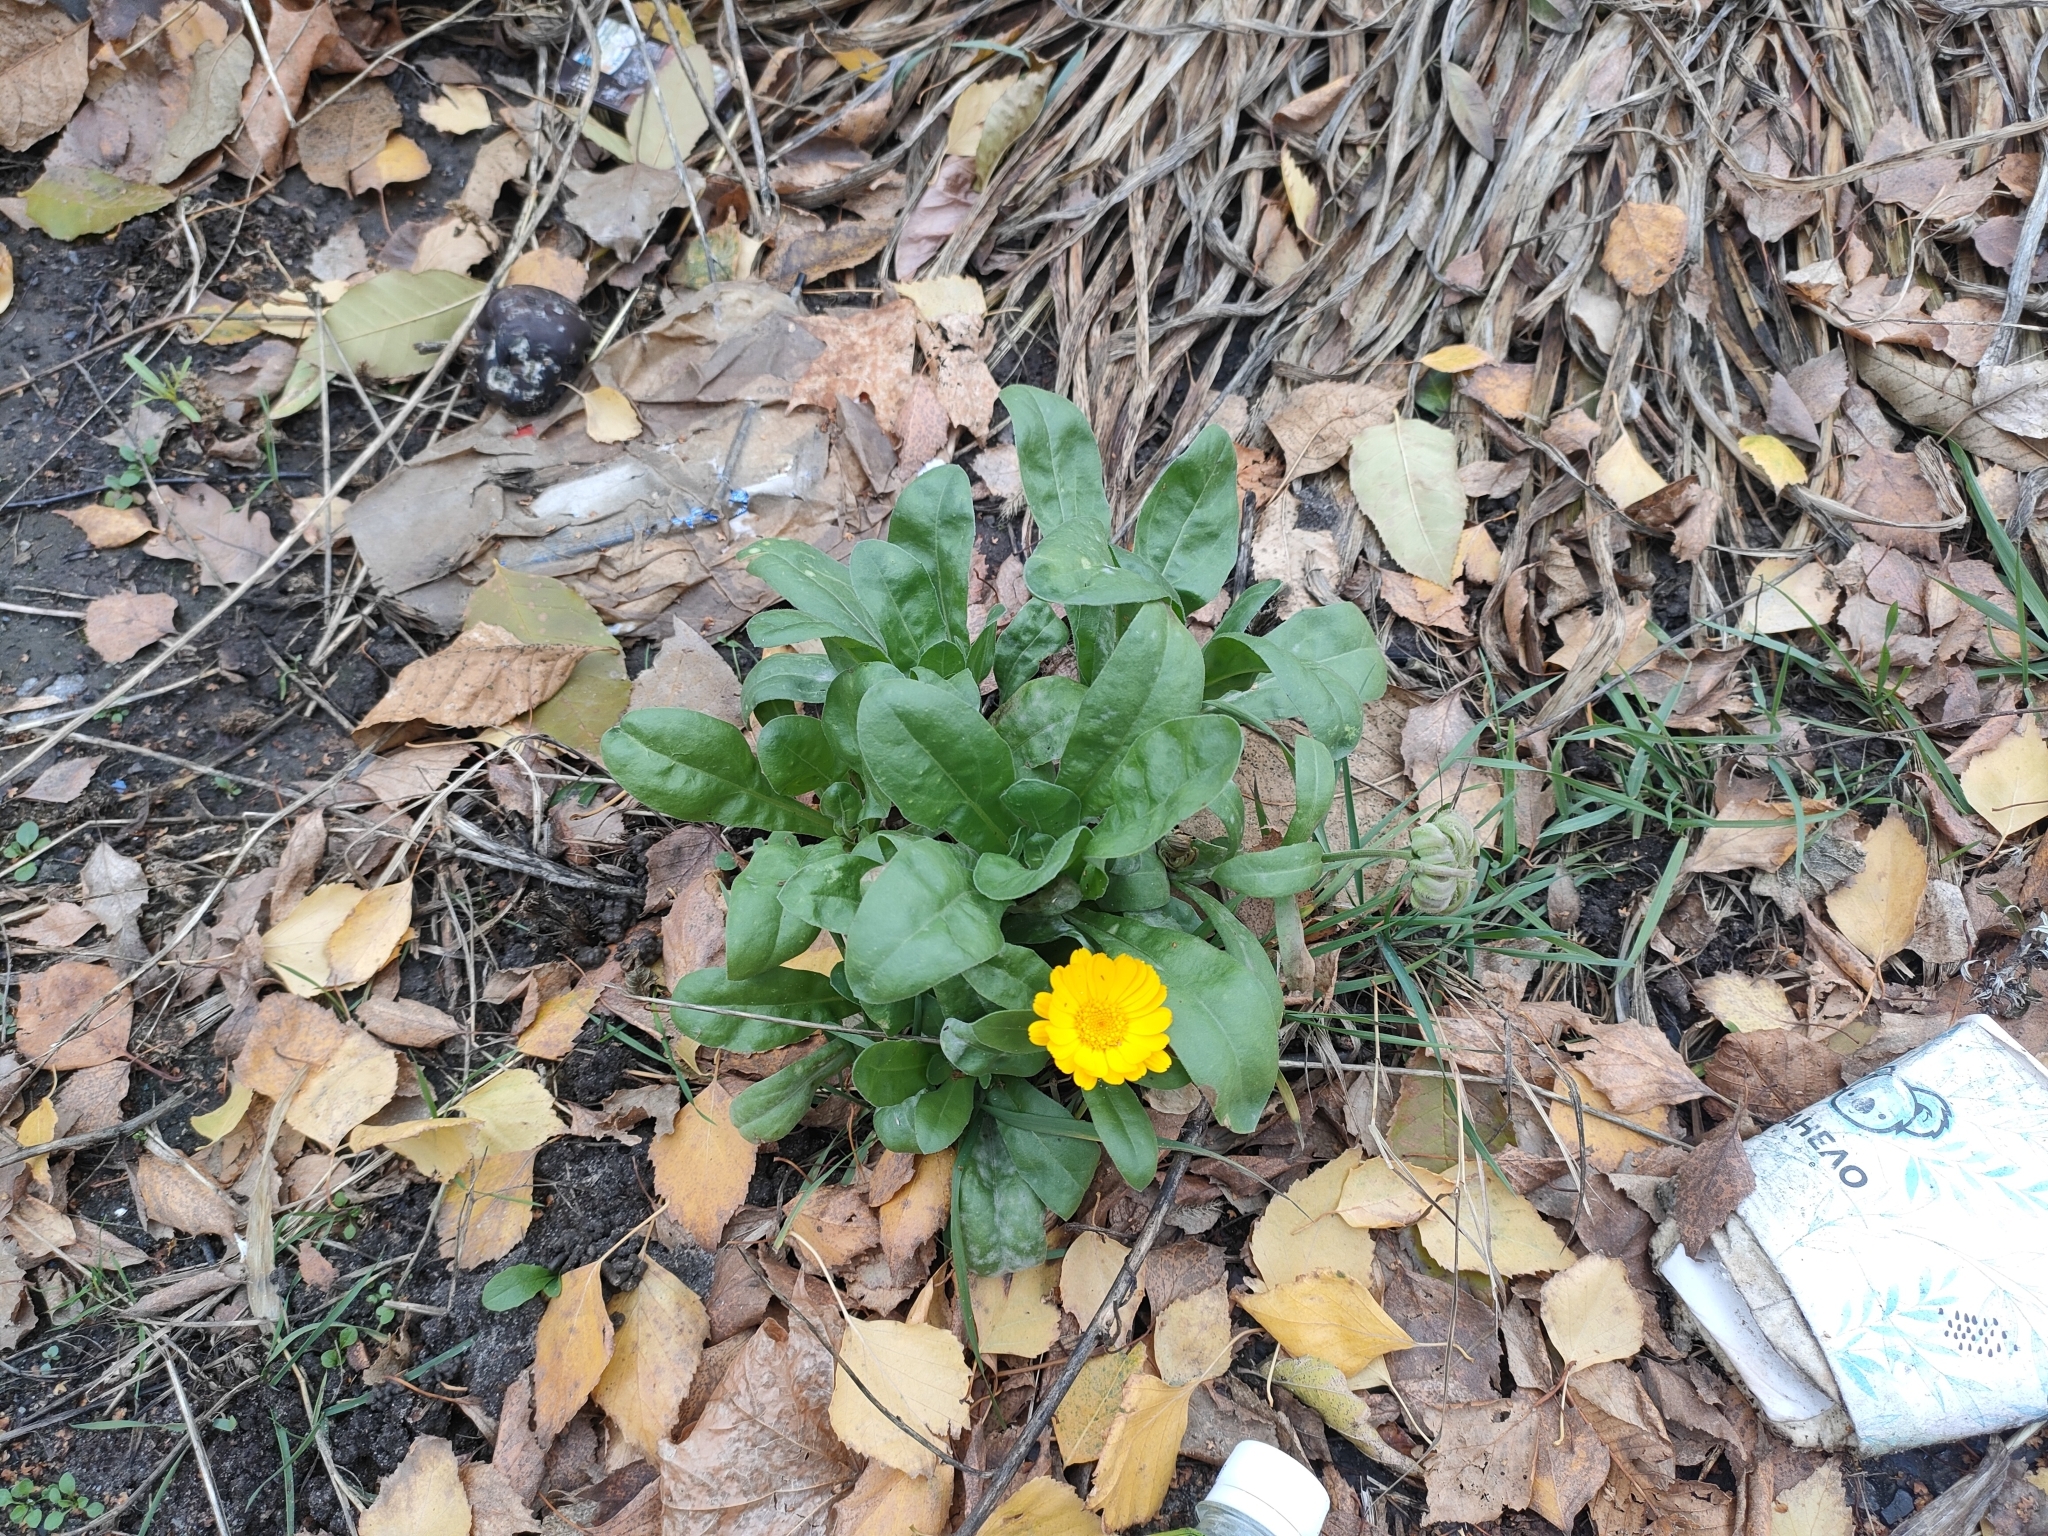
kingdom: Plantae
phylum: Tracheophyta
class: Magnoliopsida
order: Asterales
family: Asteraceae
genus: Calendula
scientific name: Calendula officinalis
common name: Pot marigold
